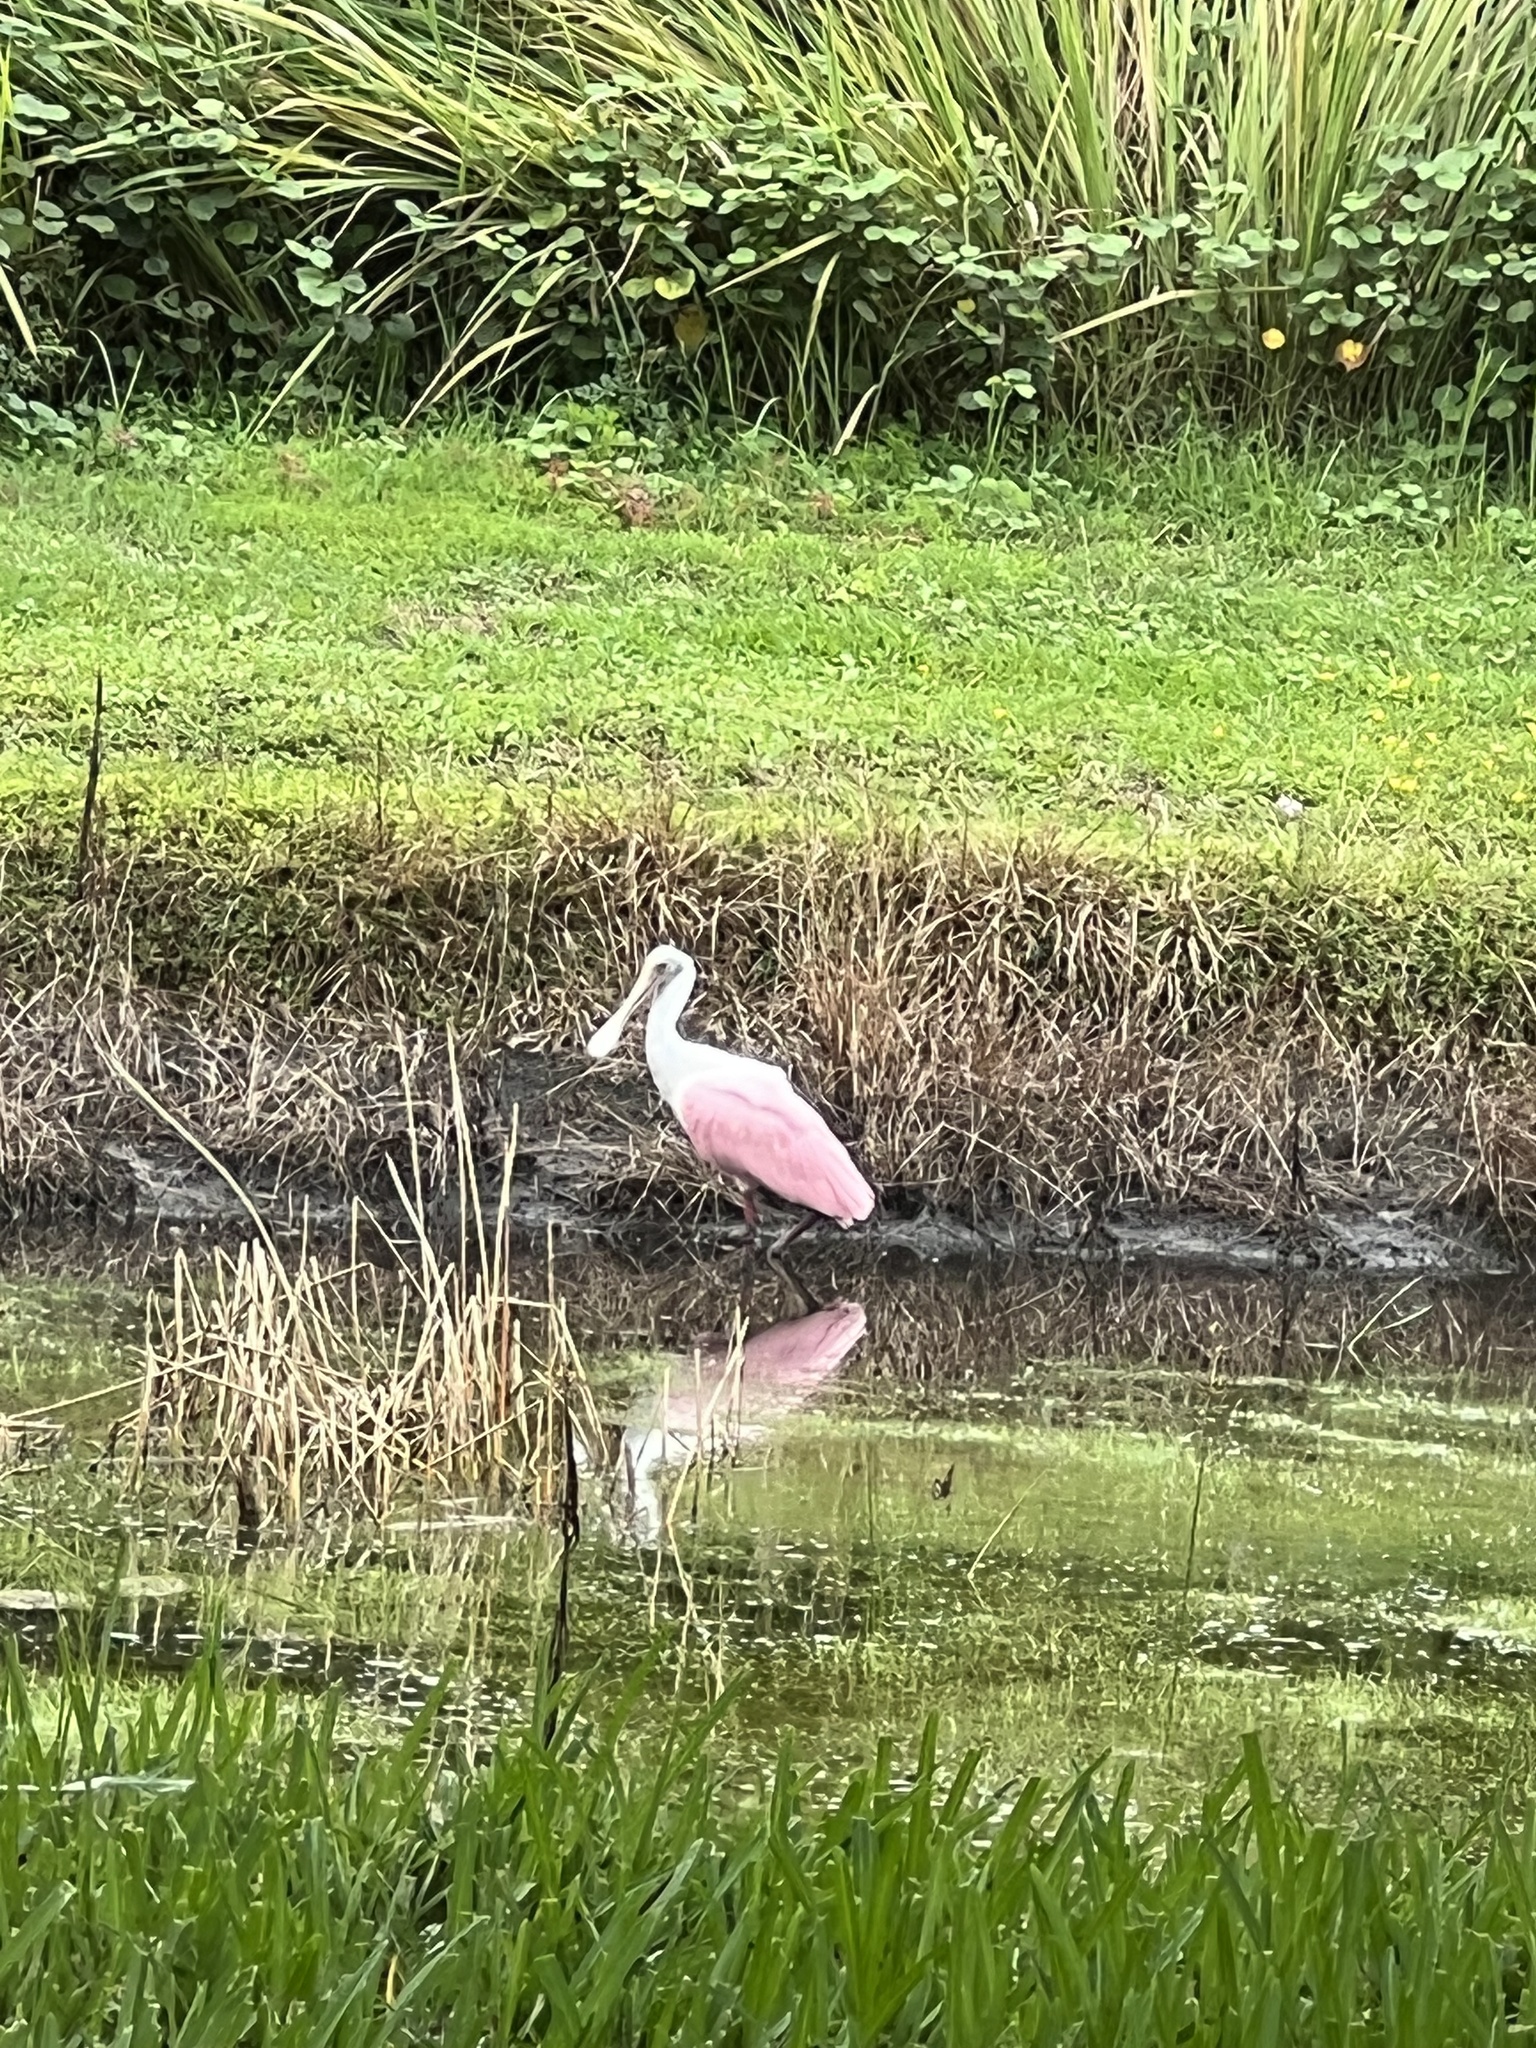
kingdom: Animalia
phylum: Chordata
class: Aves
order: Pelecaniformes
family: Threskiornithidae
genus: Platalea
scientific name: Platalea ajaja
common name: Roseate spoonbill
